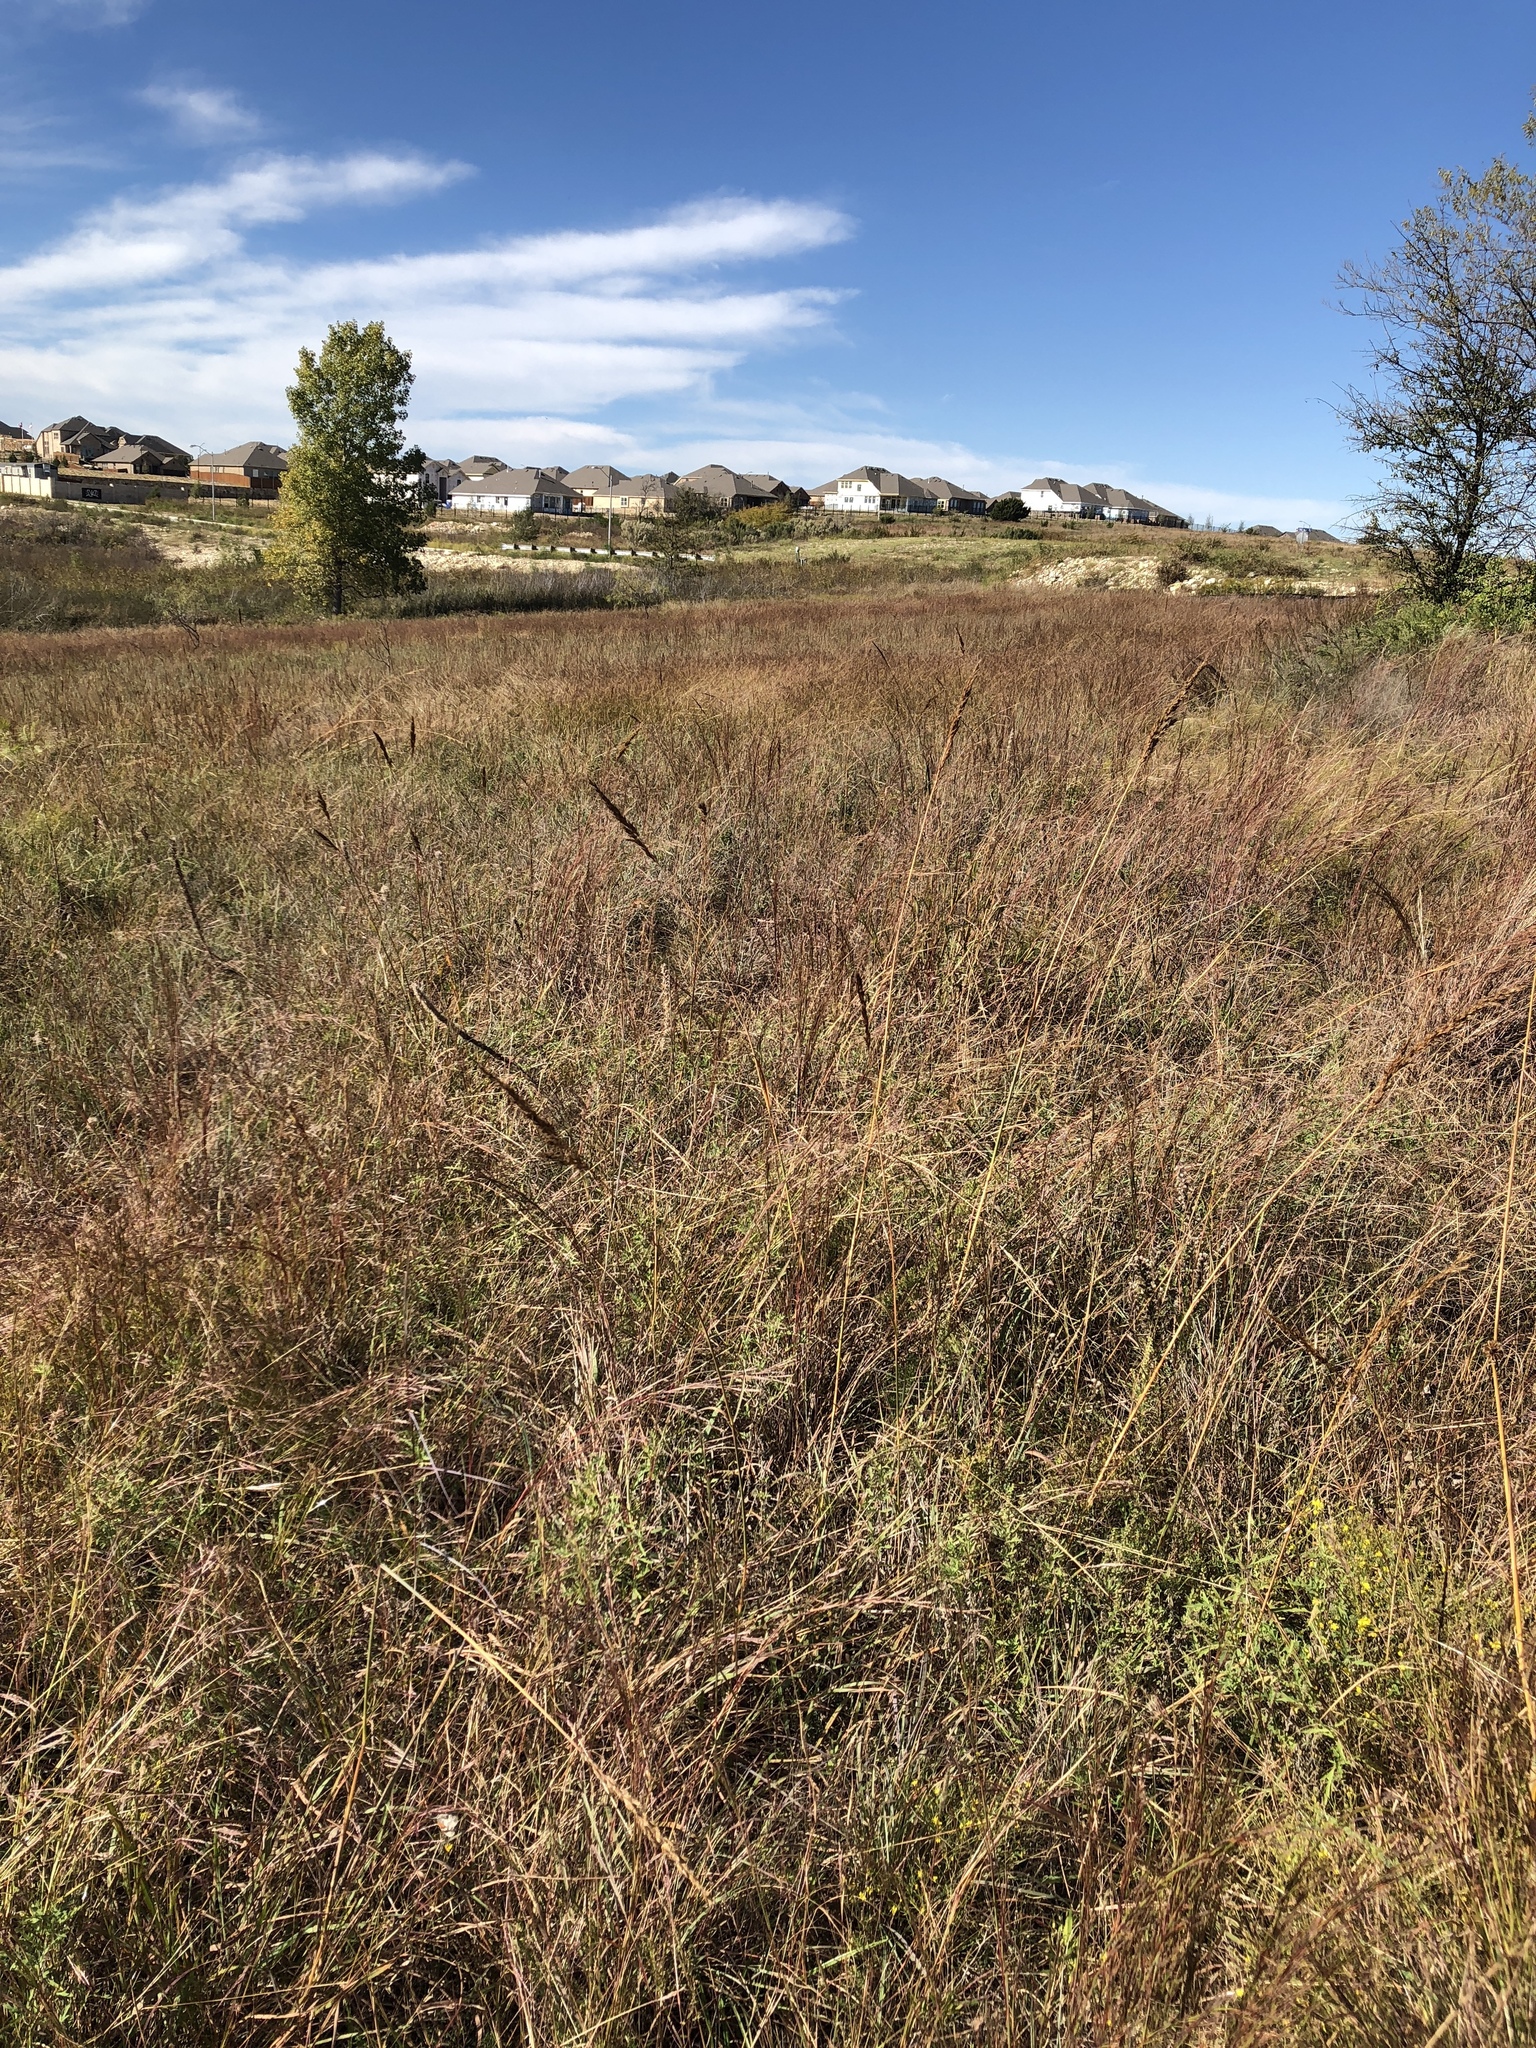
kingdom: Plantae
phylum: Tracheophyta
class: Liliopsida
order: Poales
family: Poaceae
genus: Sorghastrum
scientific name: Sorghastrum nutans
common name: Indian grass
